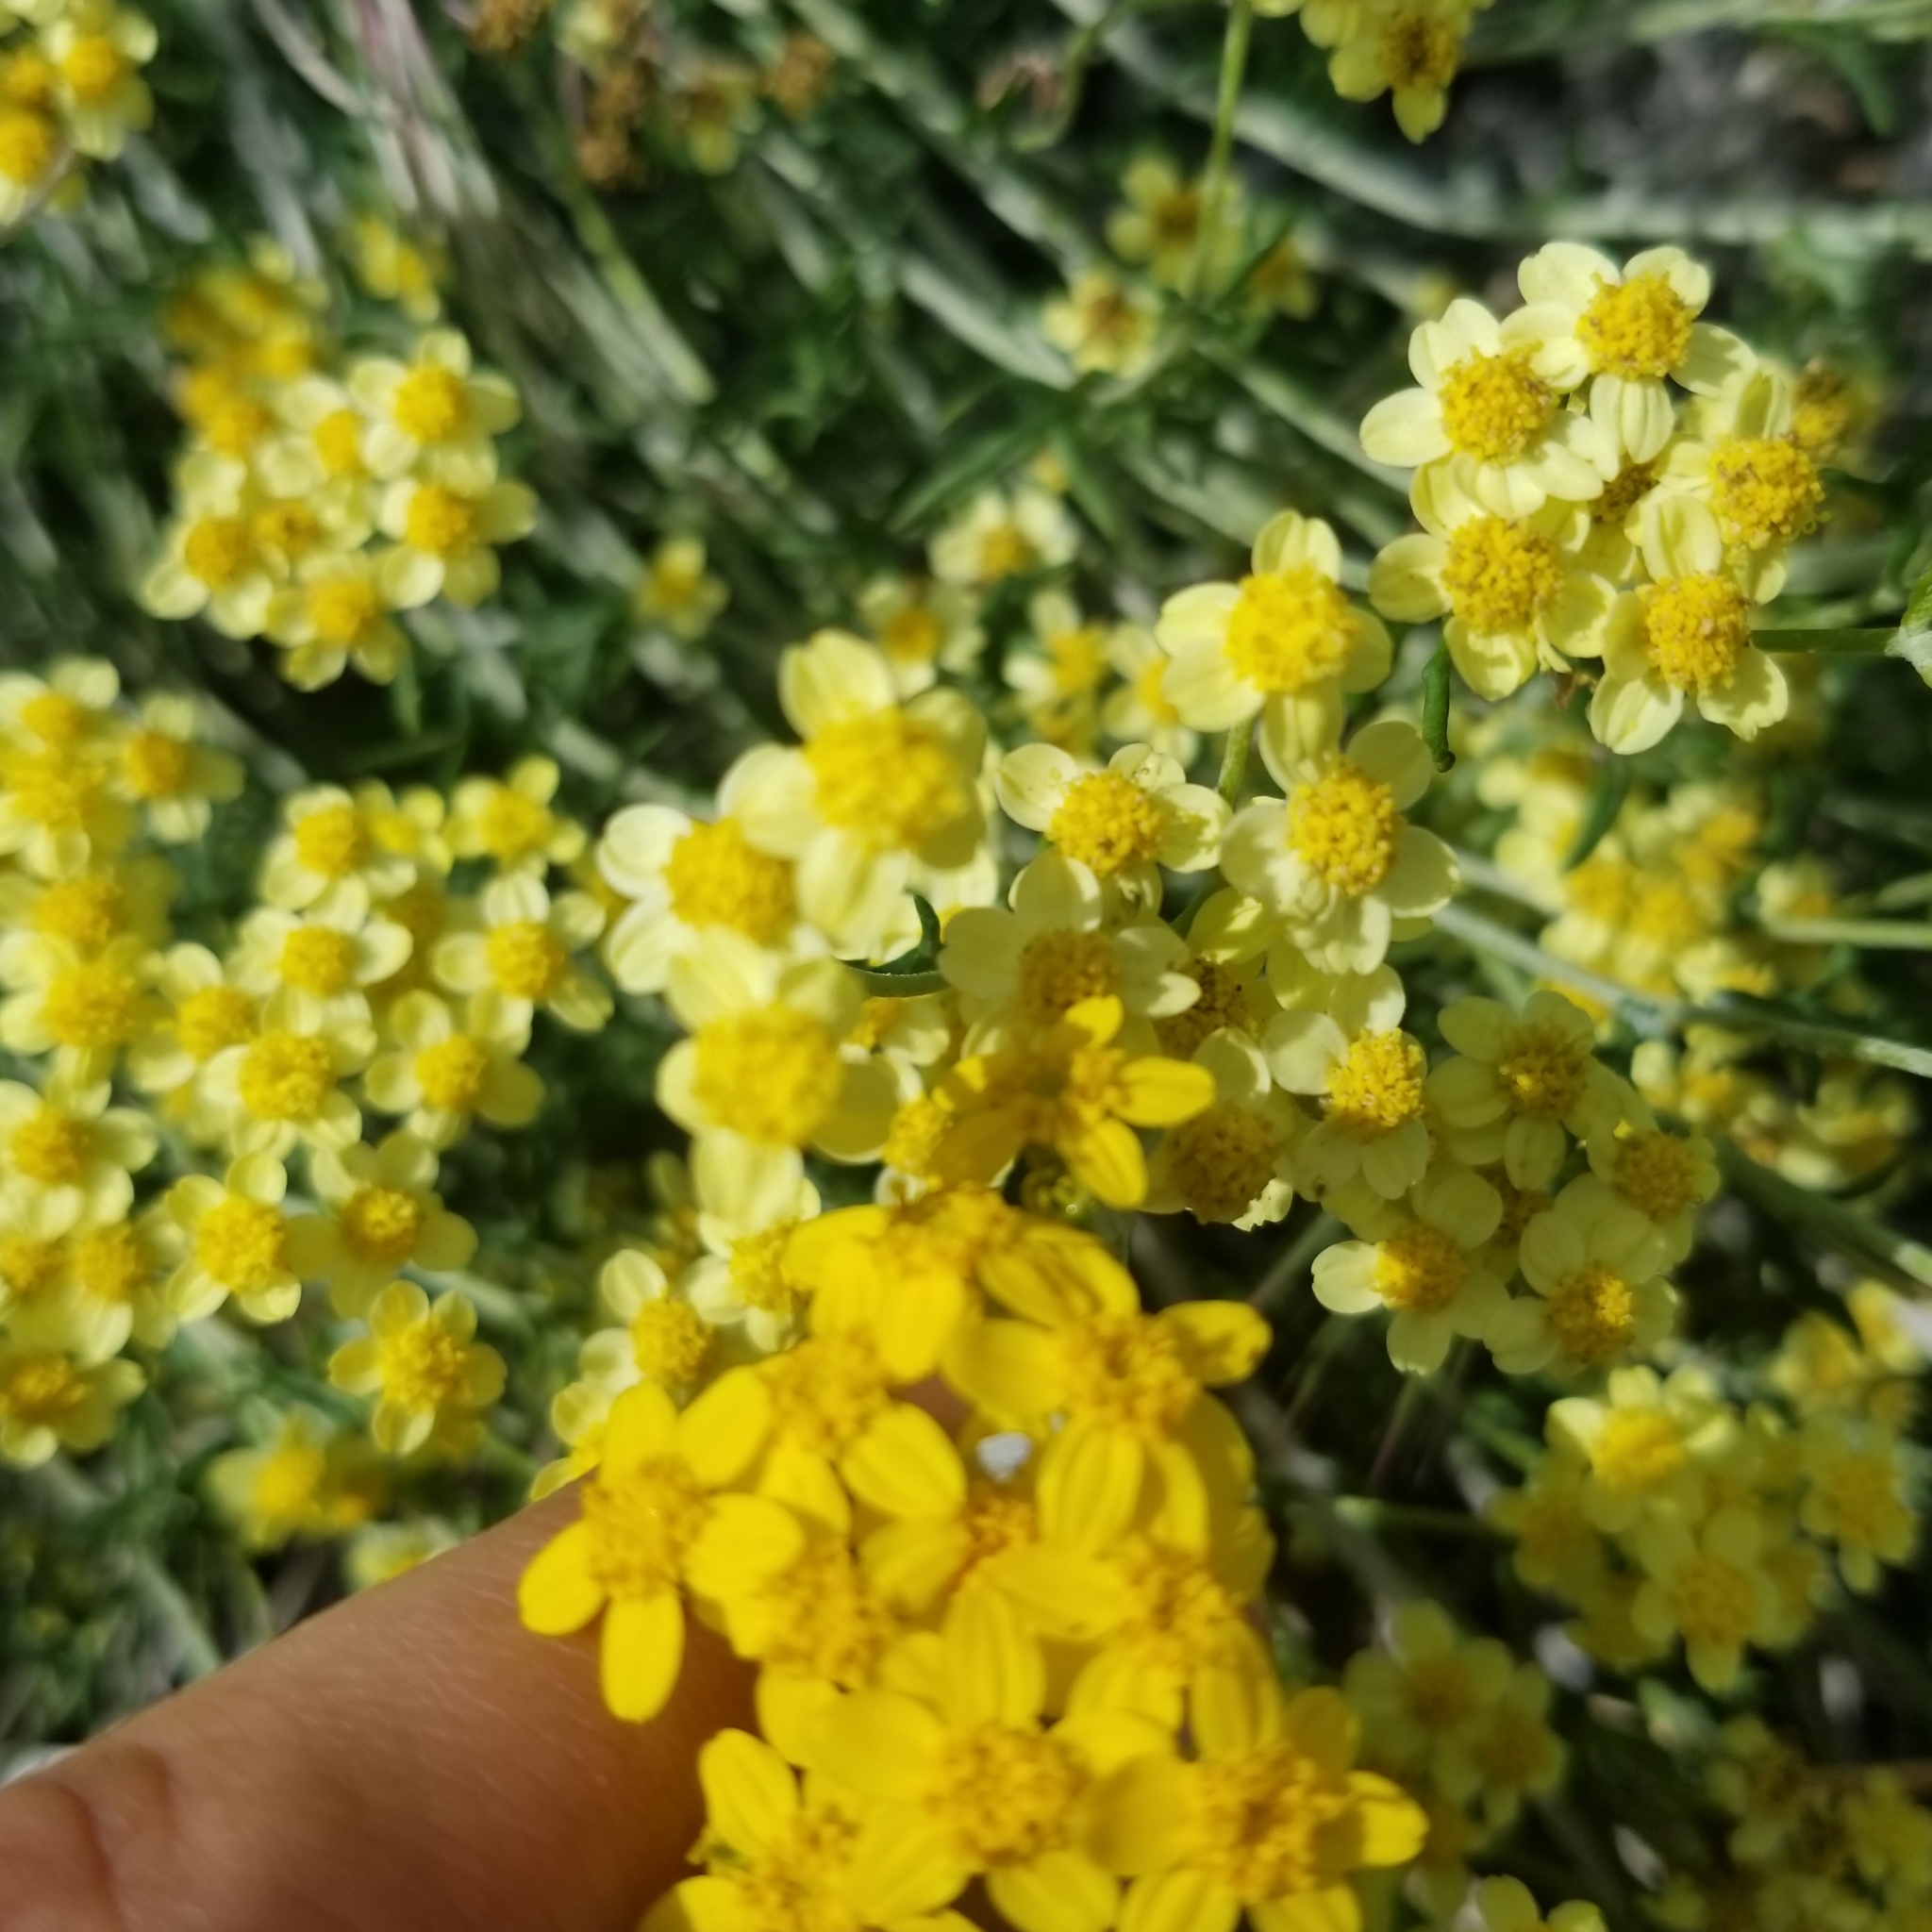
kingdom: Plantae
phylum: Tracheophyta
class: Magnoliopsida
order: Asterales
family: Asteraceae
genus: Eriophyllum
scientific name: Eriophyllum confertiflorum
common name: Golden-yarrow
